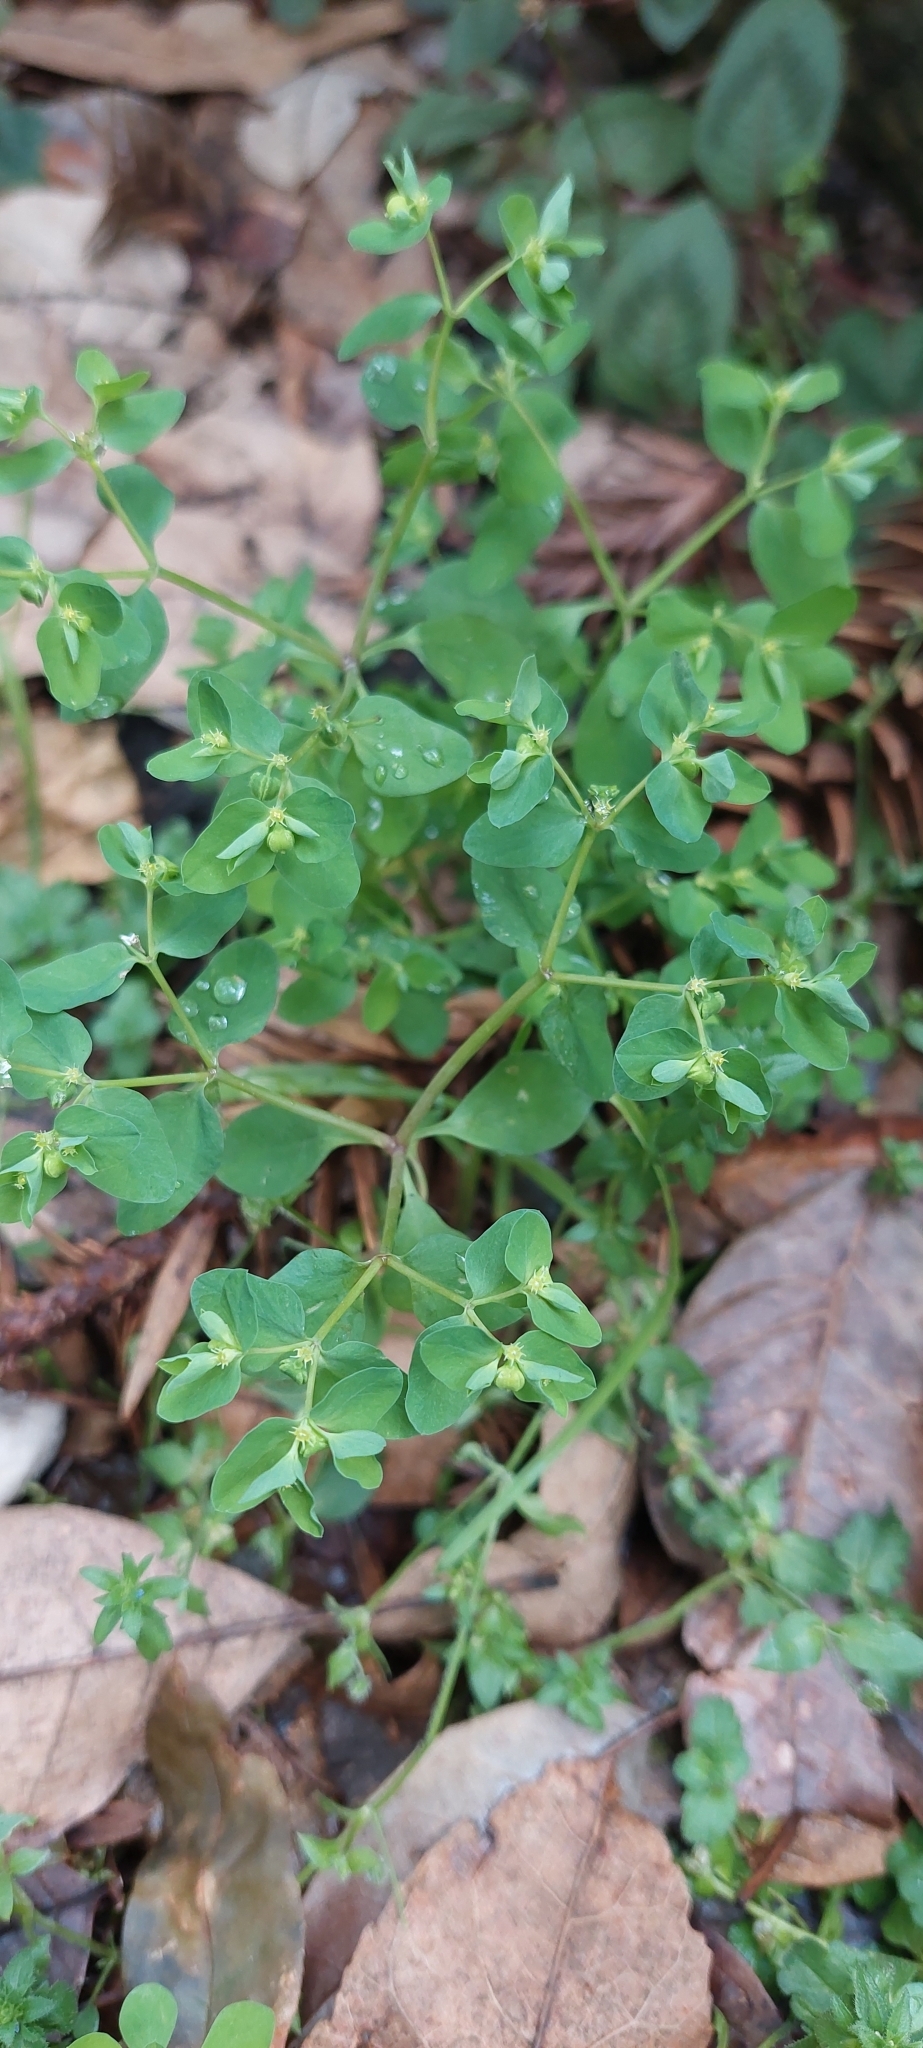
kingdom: Plantae
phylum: Tracheophyta
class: Magnoliopsida
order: Malpighiales
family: Euphorbiaceae
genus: Euphorbia
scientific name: Euphorbia peplus
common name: Petty spurge
